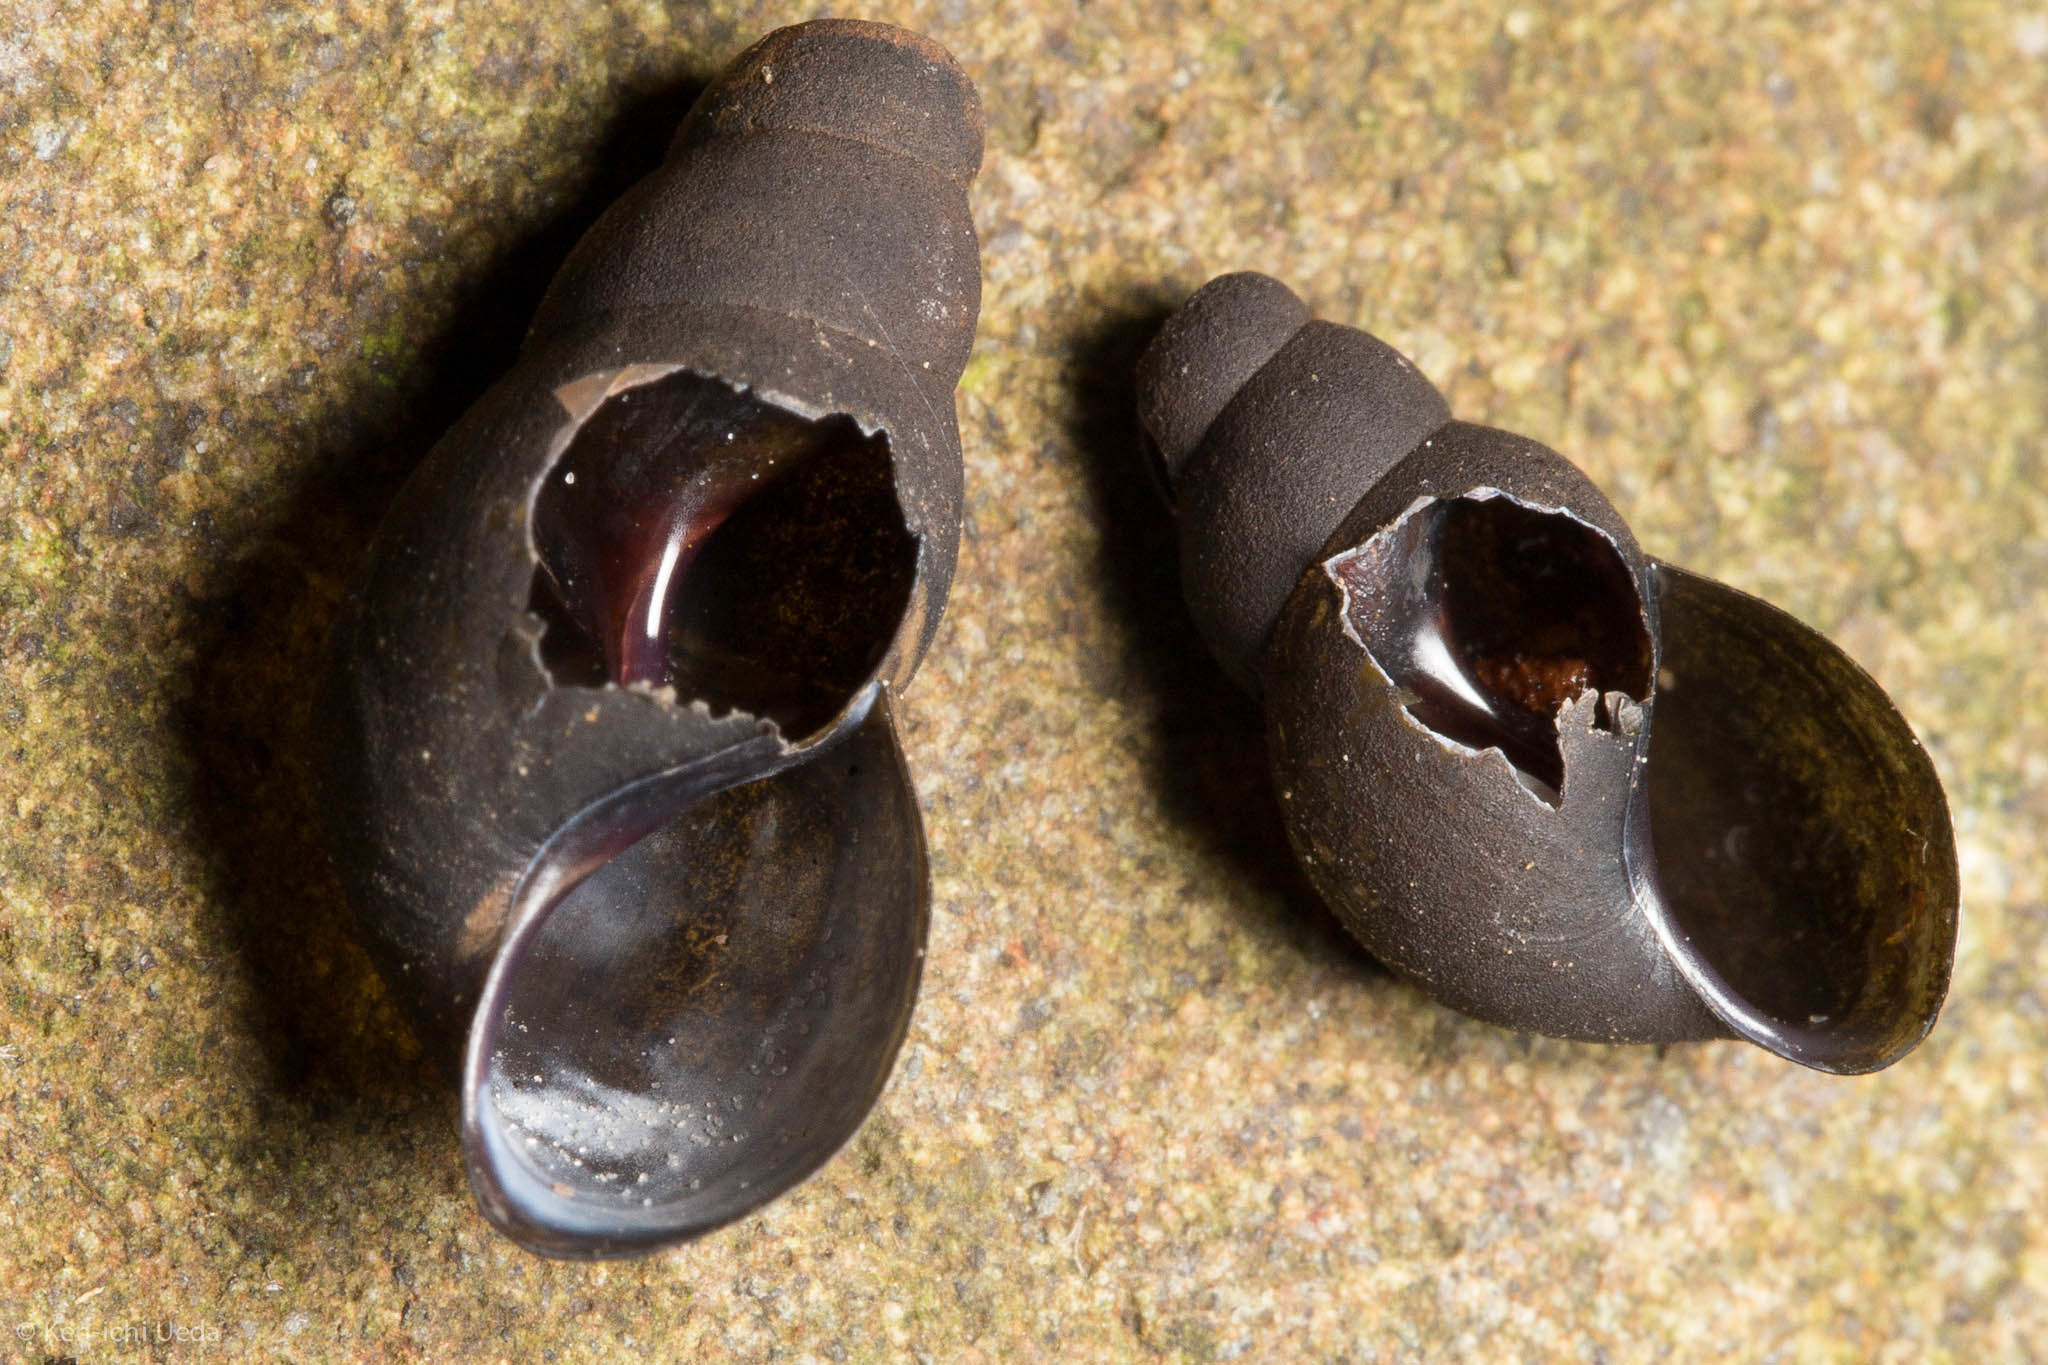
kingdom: Animalia
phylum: Mollusca
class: Gastropoda
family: Semisulcospiridae
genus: Juga
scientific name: Juga nigrina
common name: Black juga
